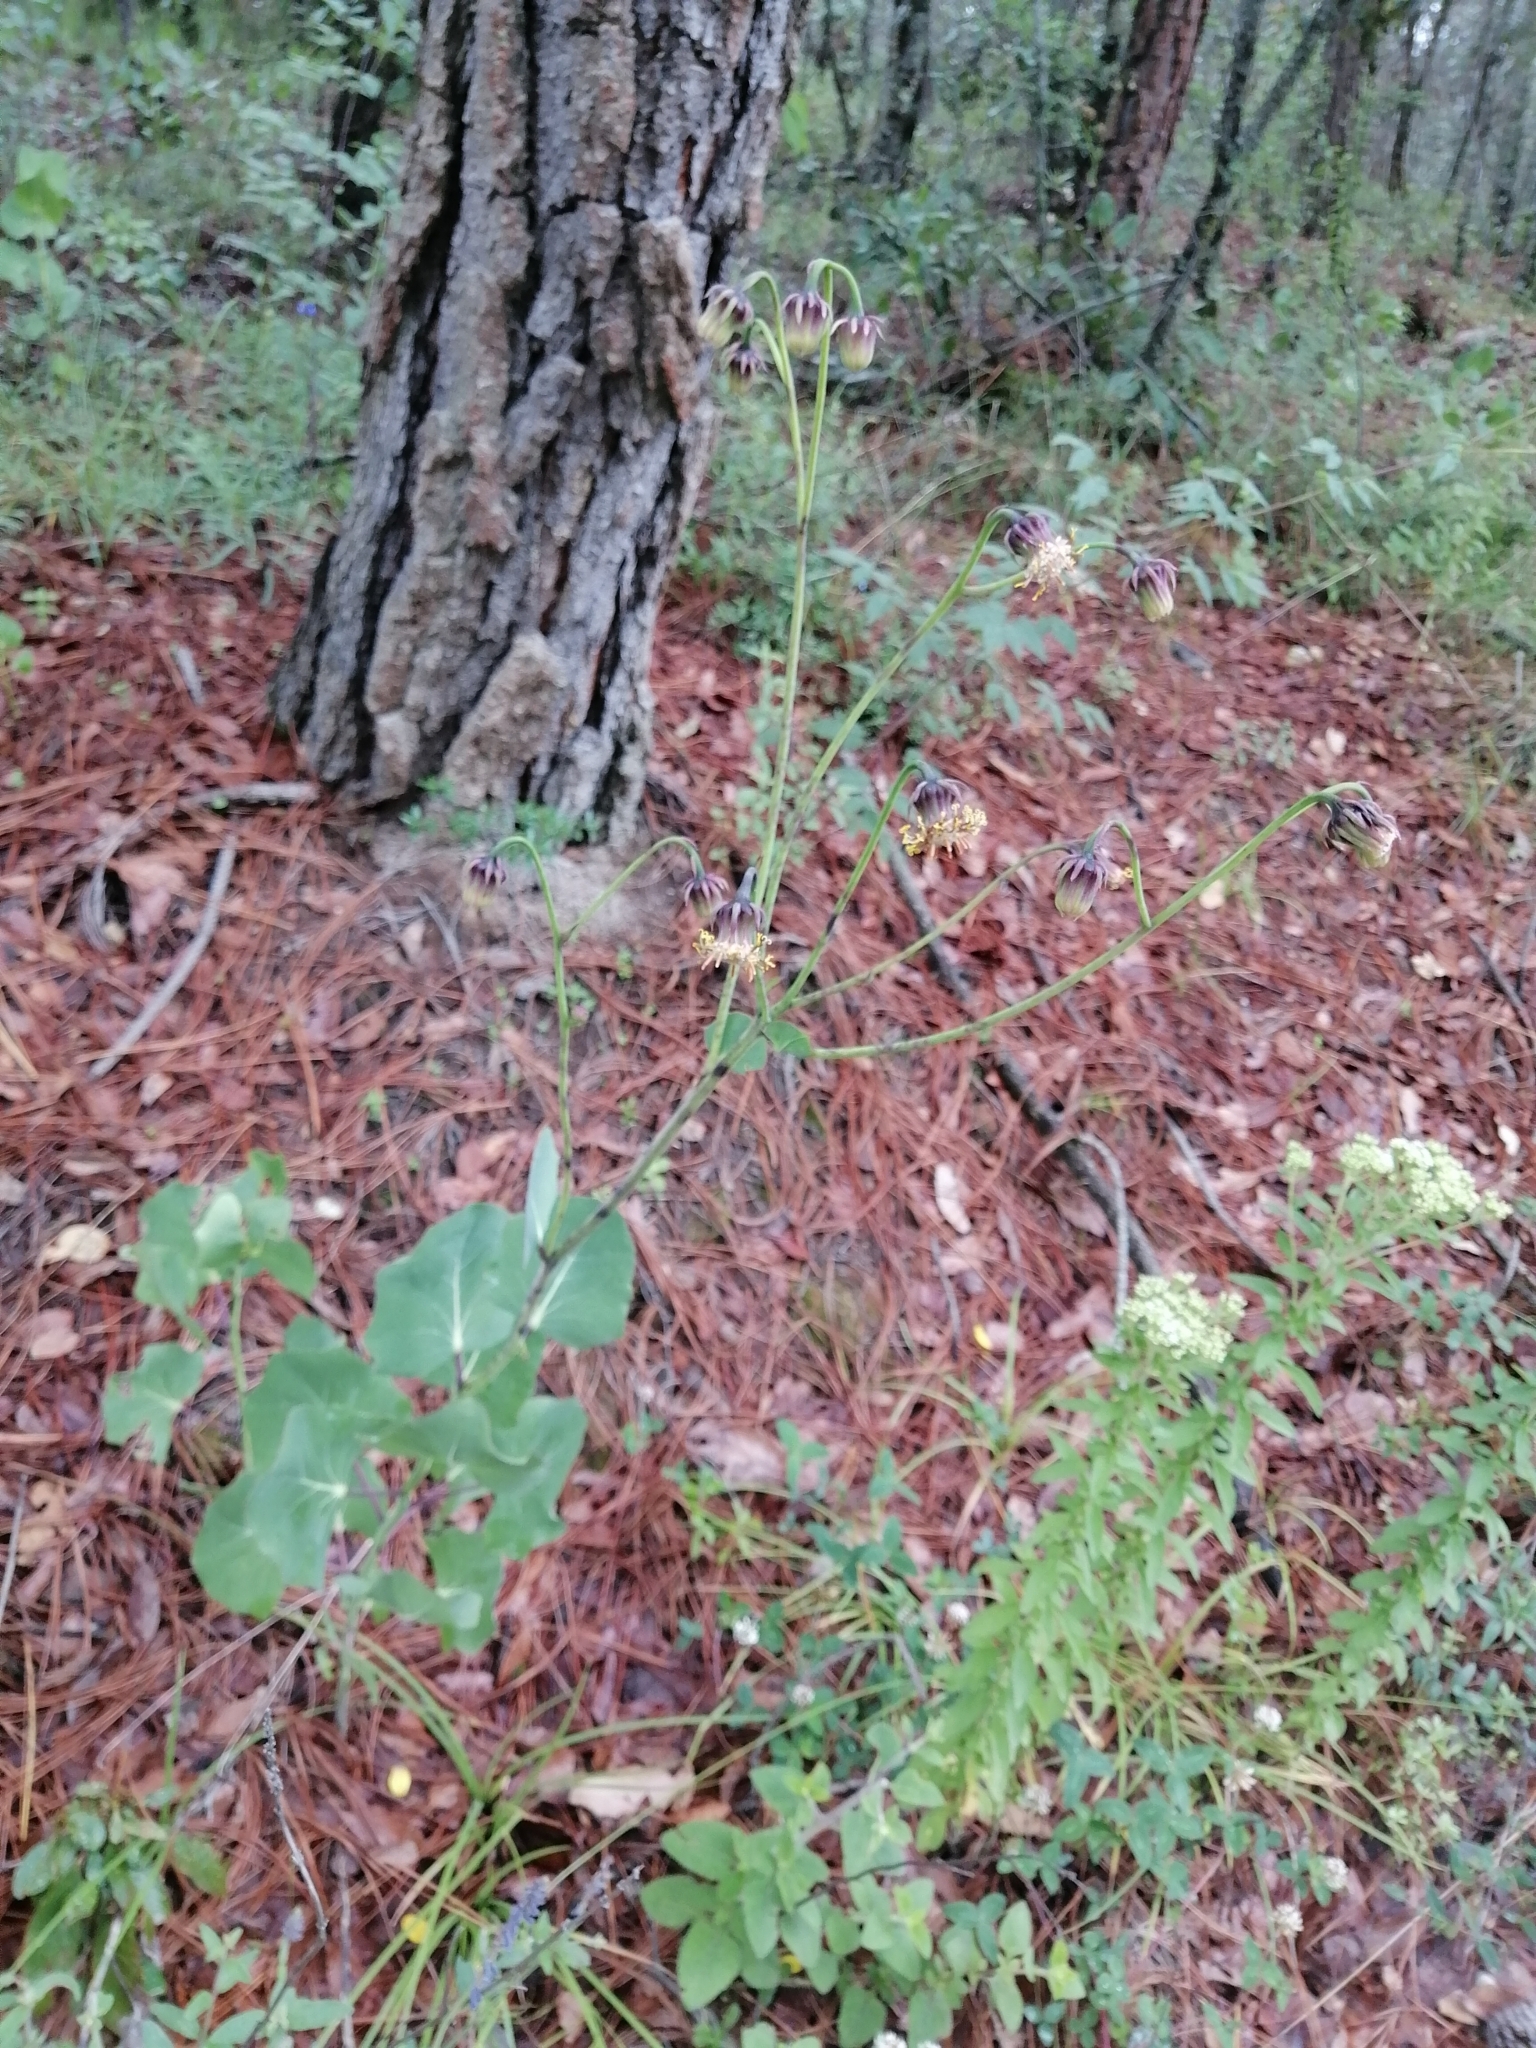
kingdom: Plantae
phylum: Tracheophyta
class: Magnoliopsida
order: Asterales
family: Asteraceae
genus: Roldana
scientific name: Roldana sessilifolia
